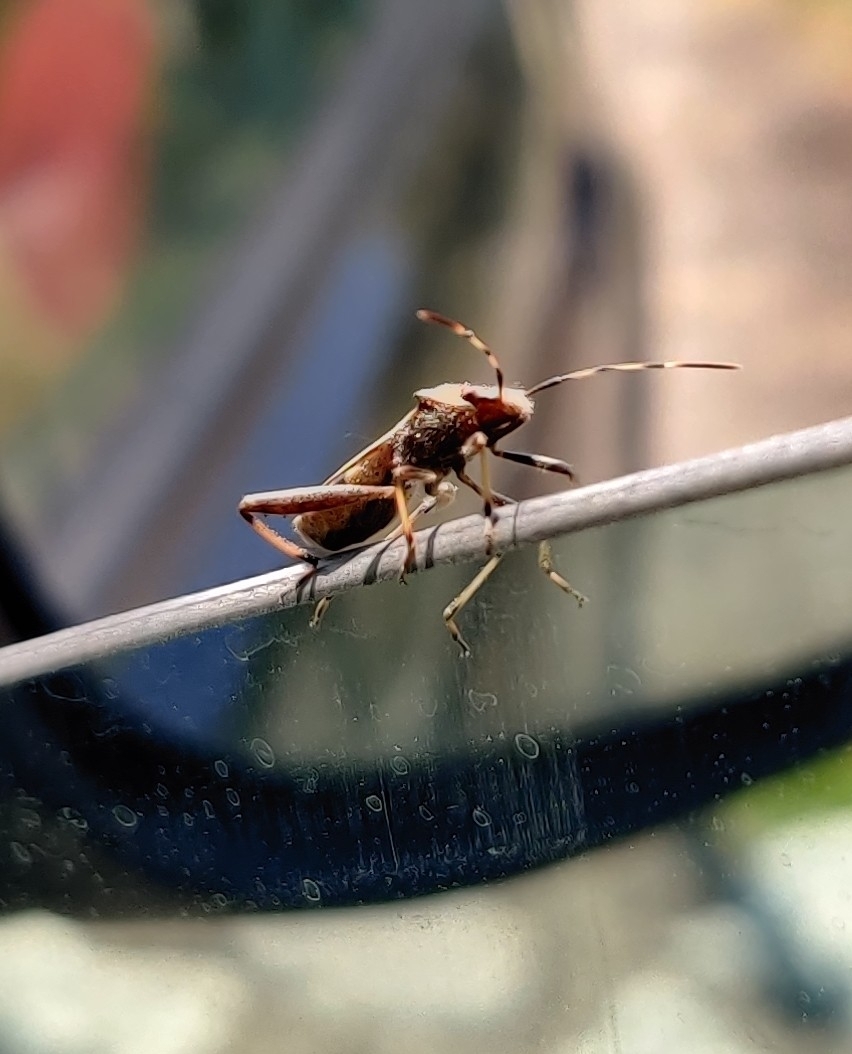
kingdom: Animalia
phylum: Arthropoda
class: Insecta
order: Hemiptera
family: Alydidae
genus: Camptopus
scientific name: Camptopus lateralis
